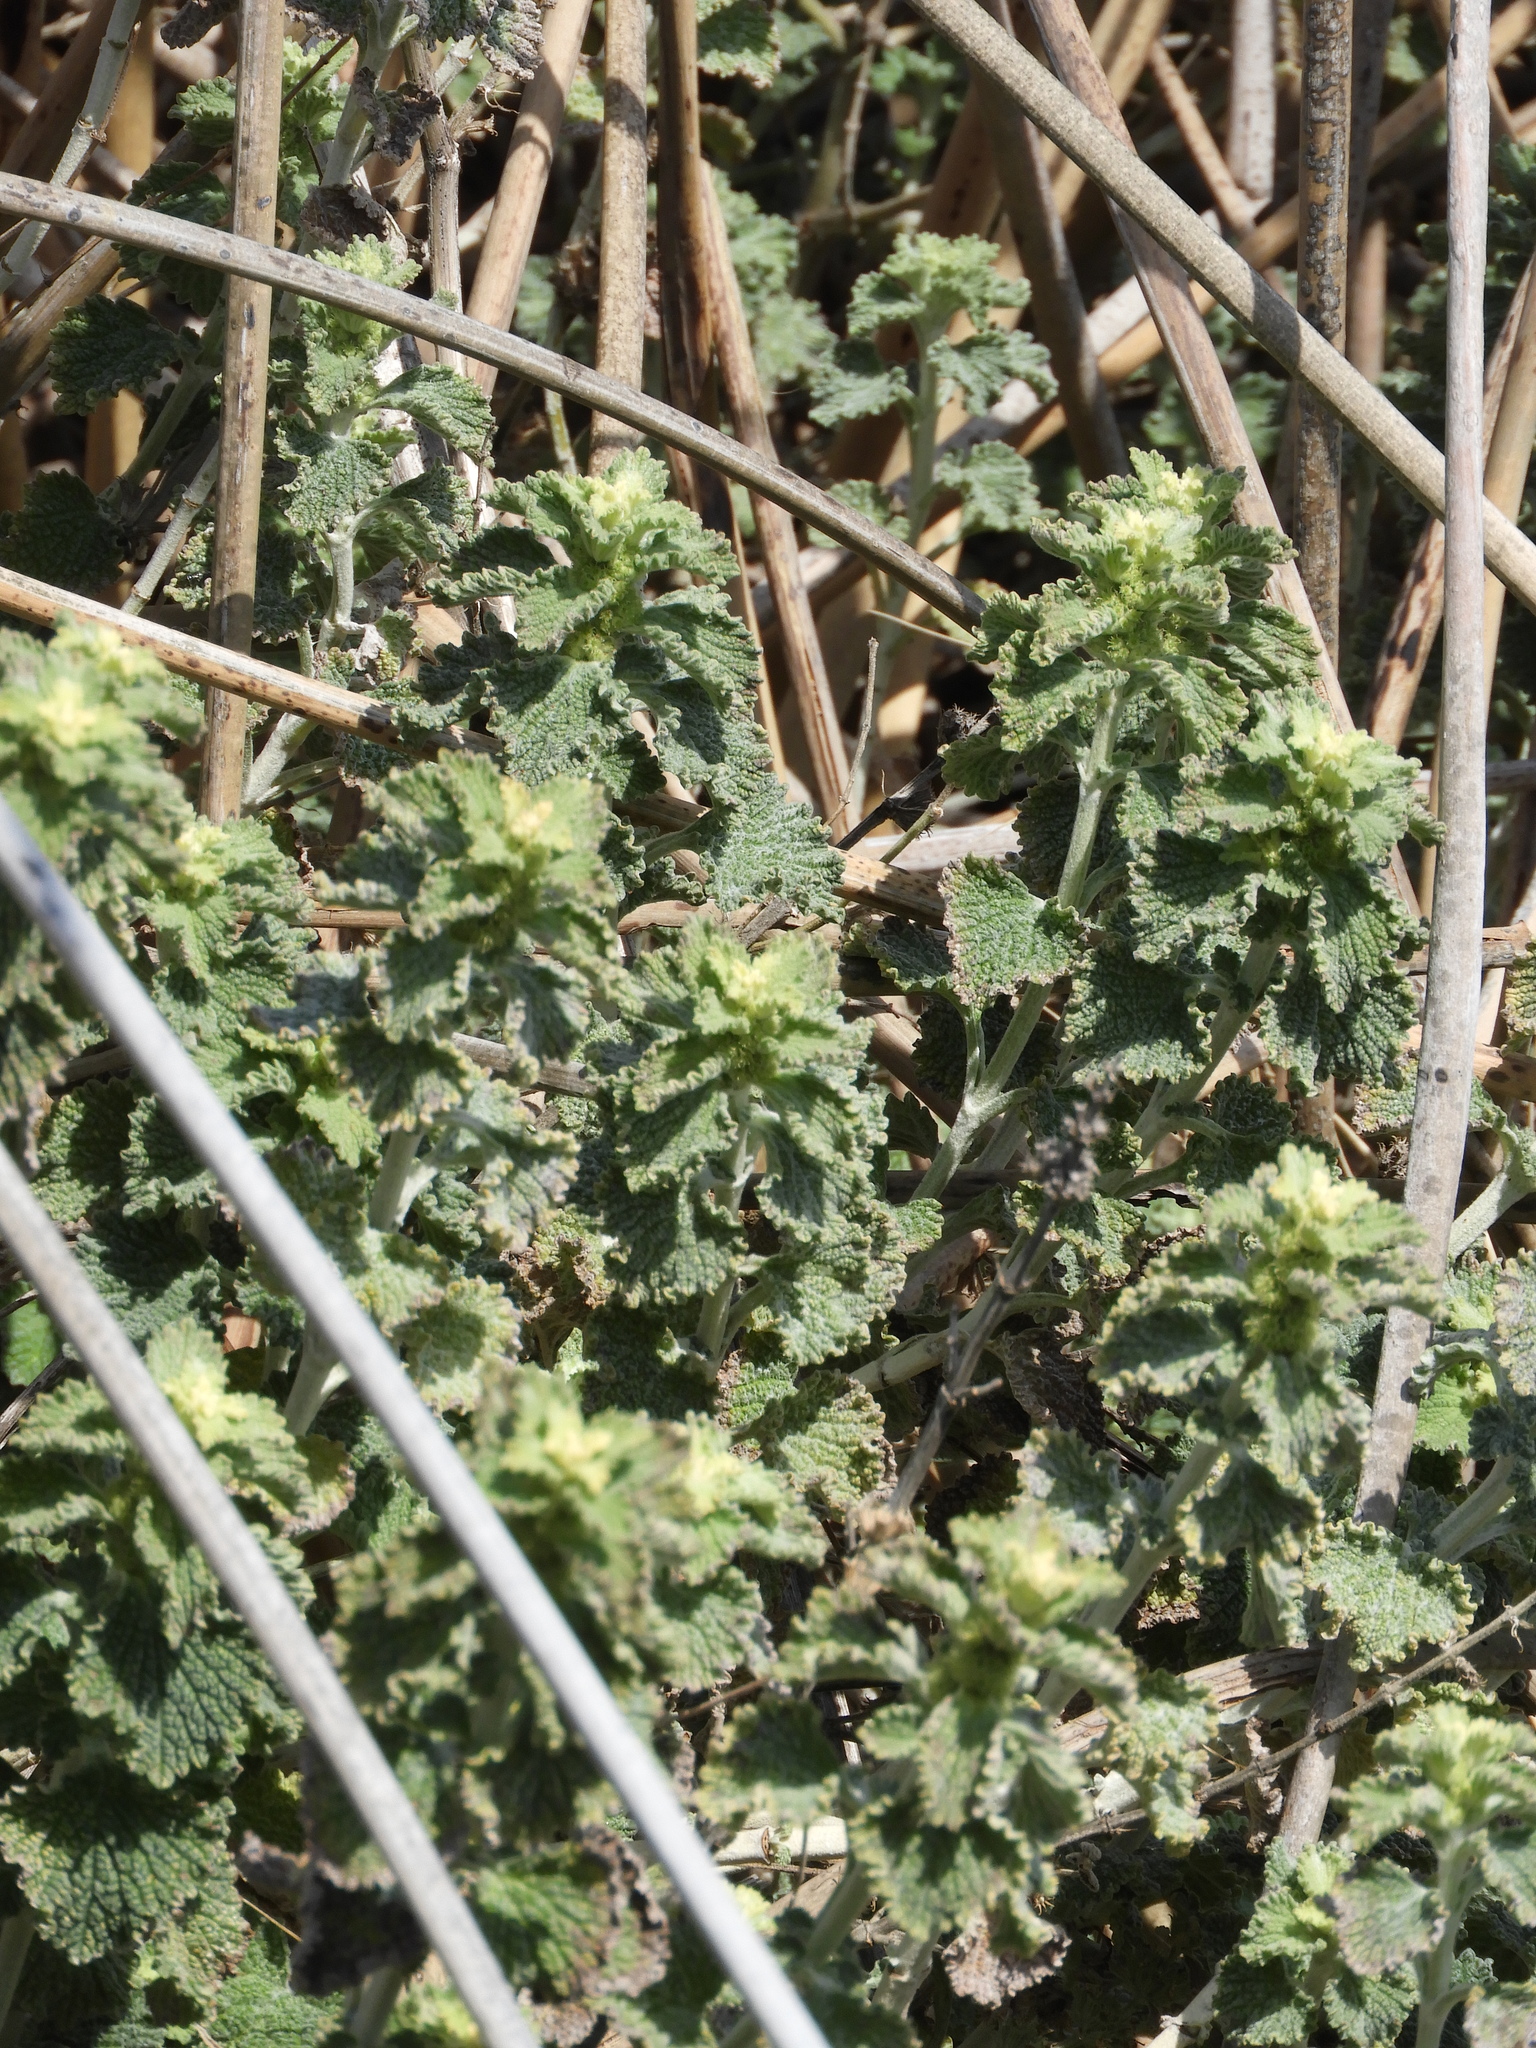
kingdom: Plantae
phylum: Tracheophyta
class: Magnoliopsida
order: Lamiales
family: Lamiaceae
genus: Marrubium
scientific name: Marrubium vulgare
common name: Horehound
